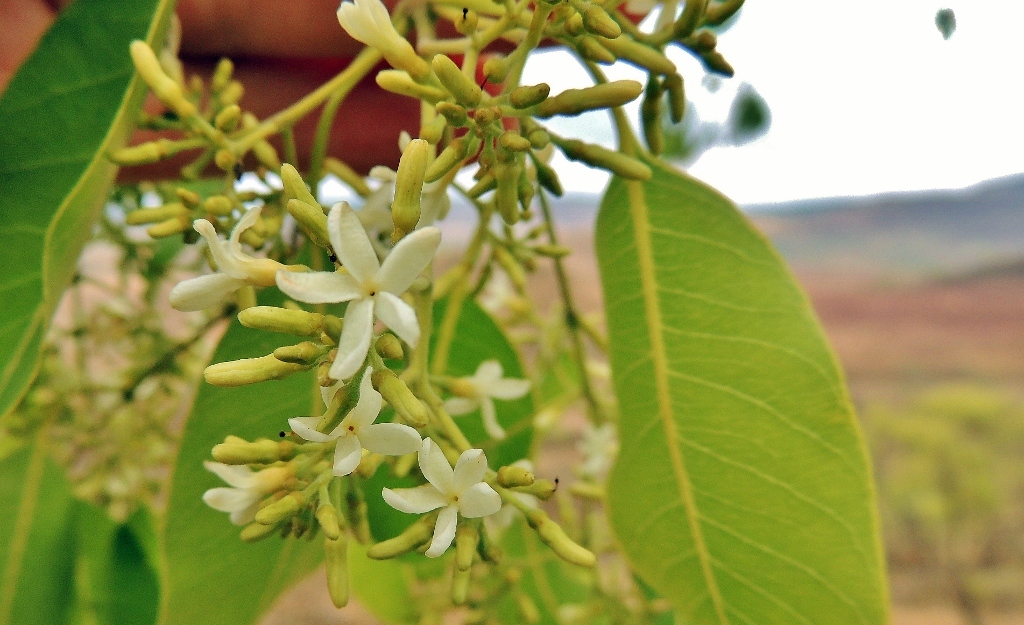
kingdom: Plantae
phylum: Tracheophyta
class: Magnoliopsida
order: Gentianales
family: Apocynaceae
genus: Diplorhynchus
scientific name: Diplorhynchus condylocarpon
